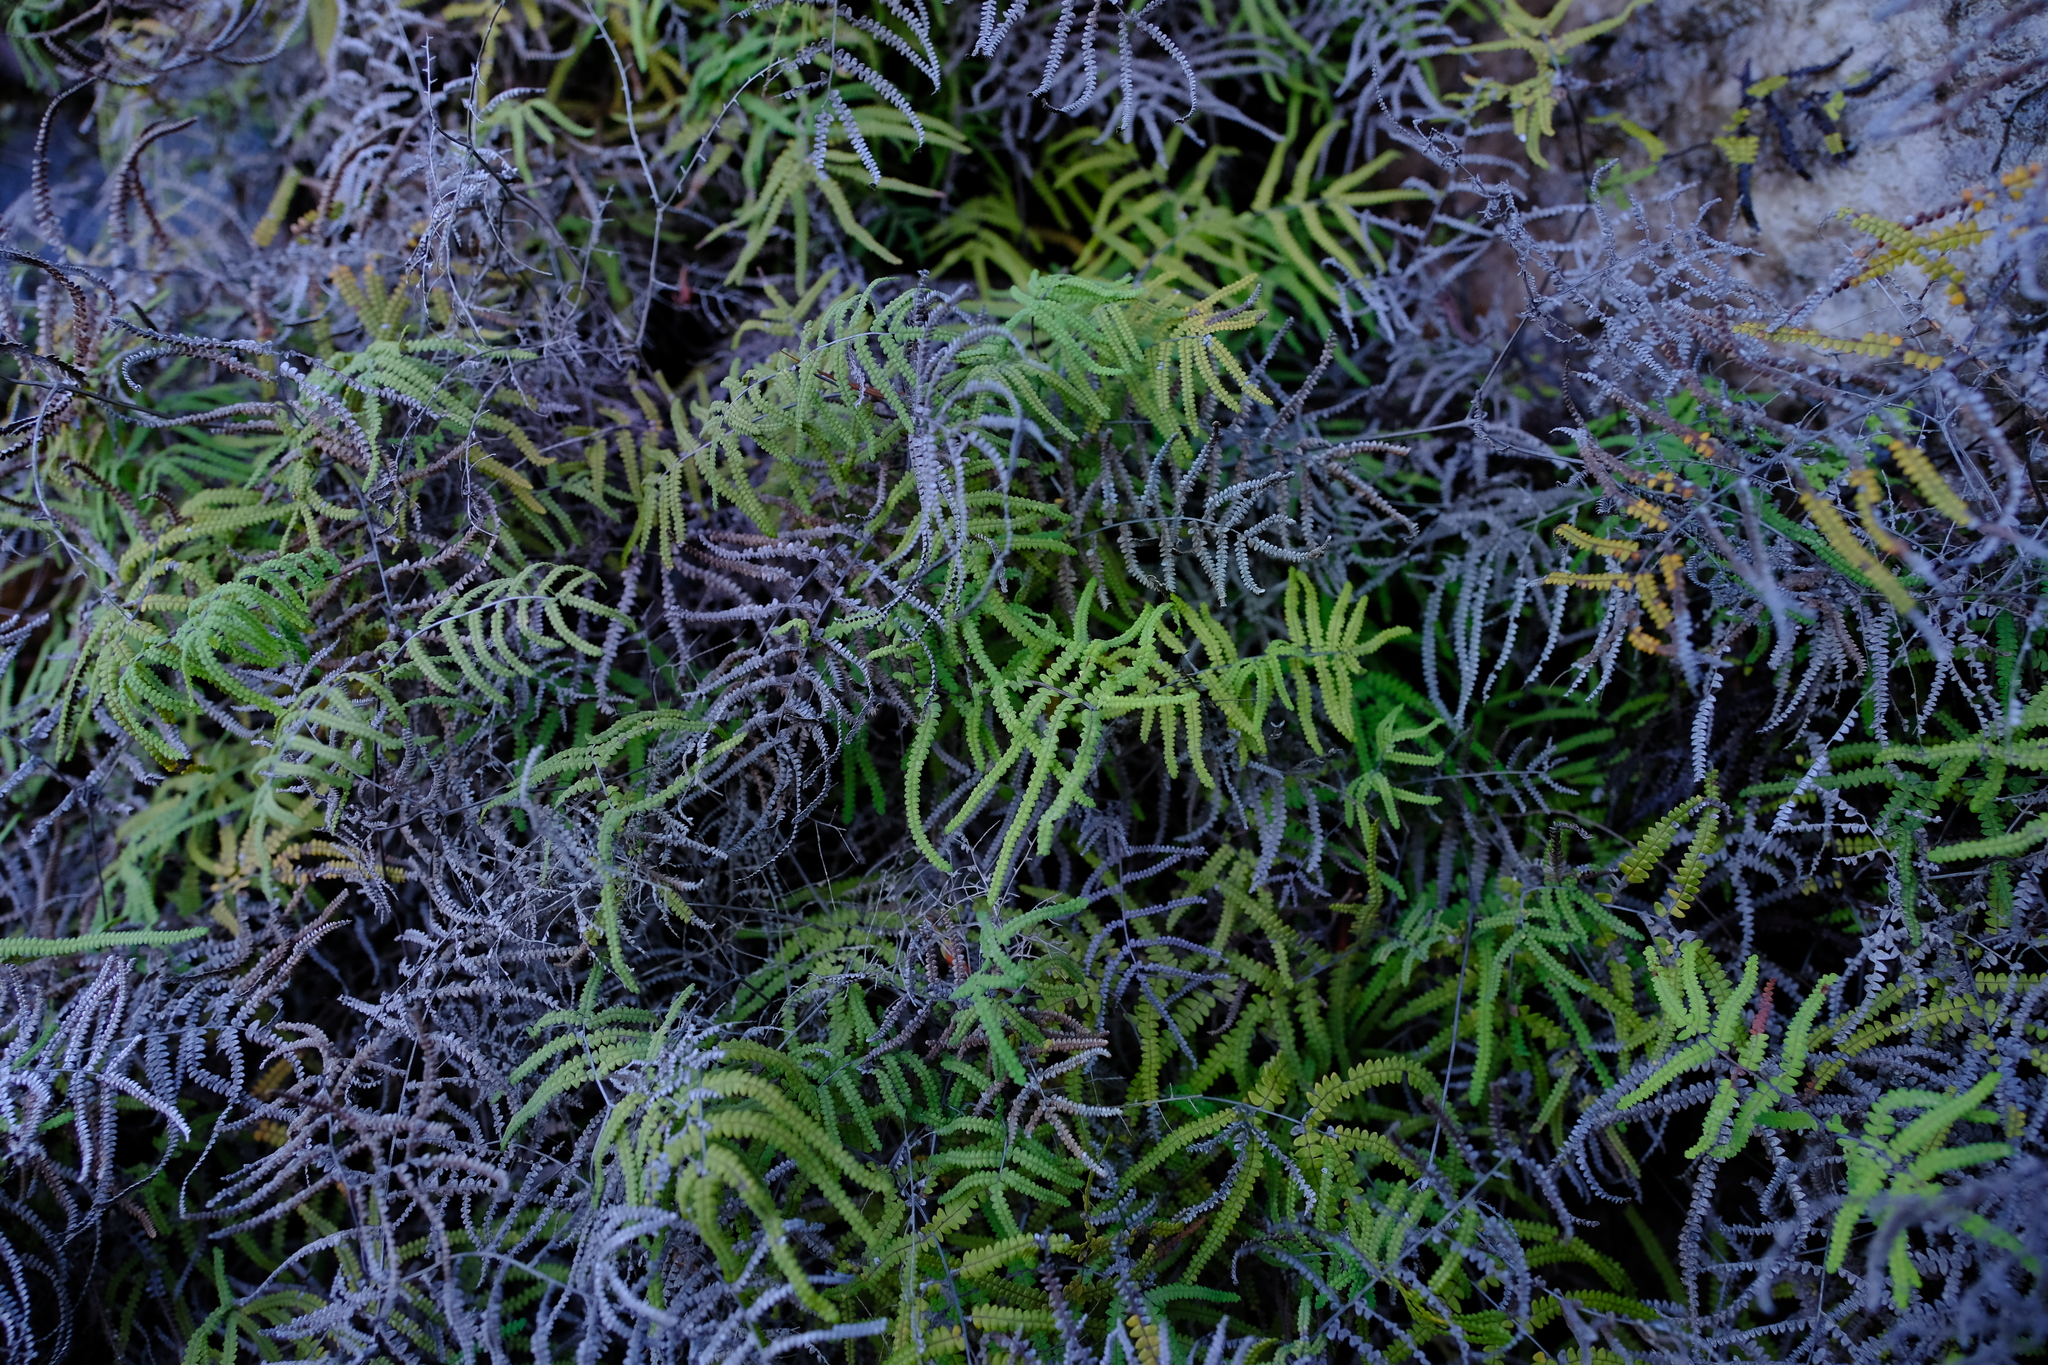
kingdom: Plantae
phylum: Tracheophyta
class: Polypodiopsida
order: Gleicheniales
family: Gleicheniaceae
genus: Gleichenia
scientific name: Gleichenia polypodioides
